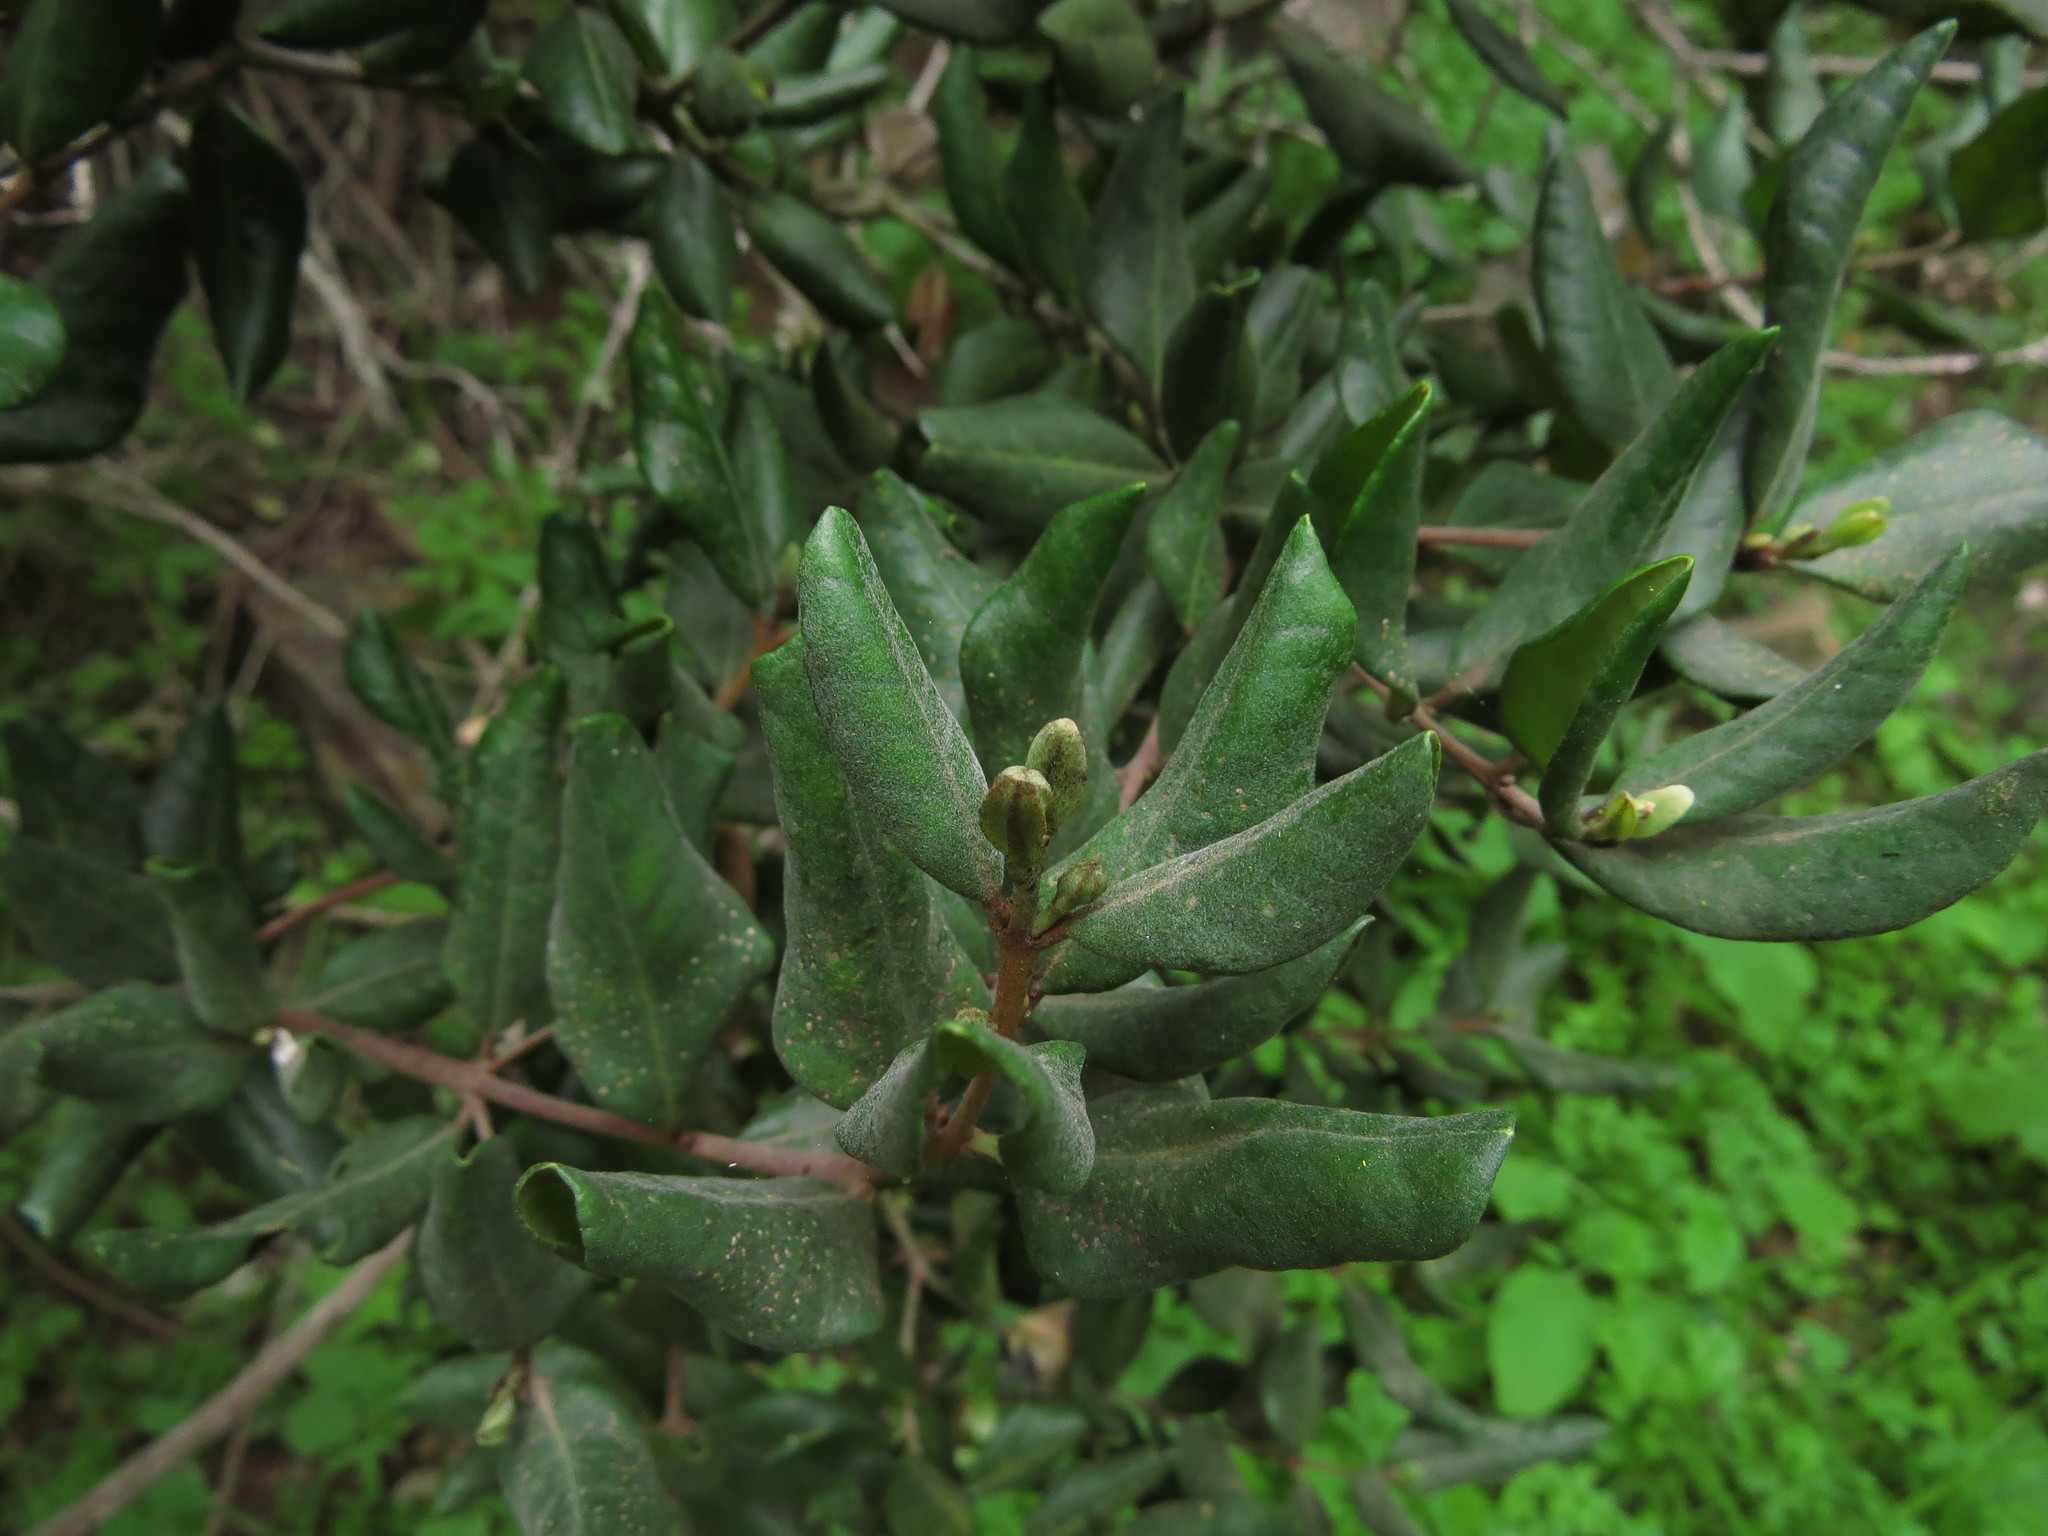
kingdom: Plantae
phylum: Tracheophyta
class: Magnoliopsida
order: Myrtales
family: Myrtaceae
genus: Myrceugenia
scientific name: Myrceugenia correifolia
